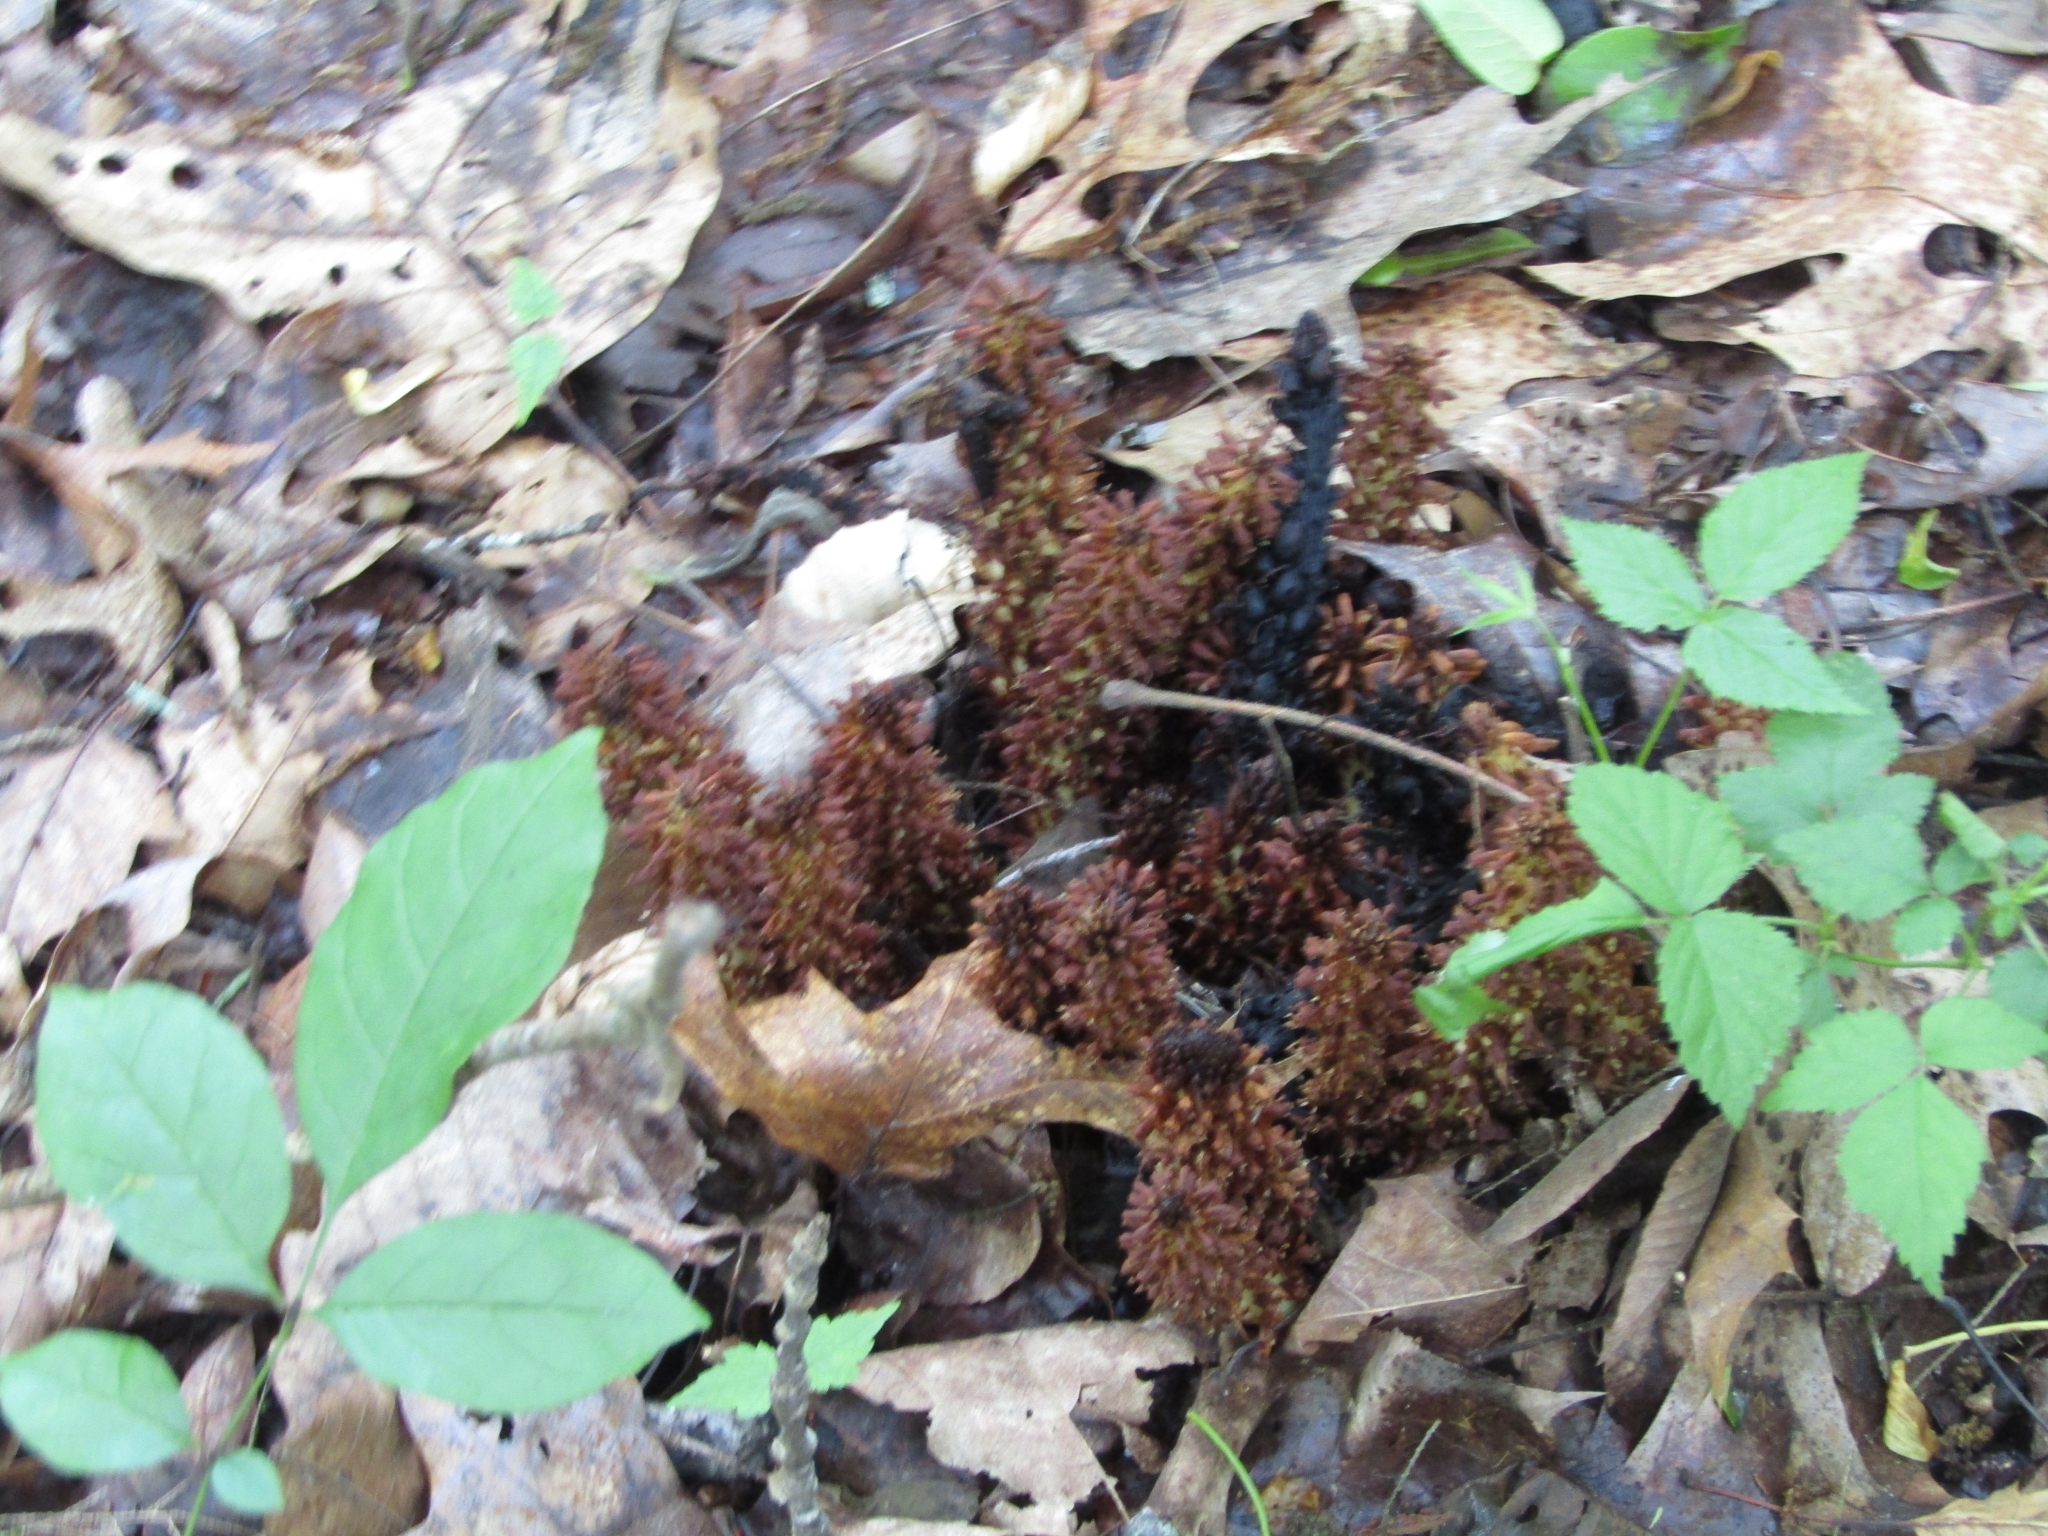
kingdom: Plantae
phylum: Tracheophyta
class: Magnoliopsida
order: Lamiales
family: Orobanchaceae
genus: Conopholis
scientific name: Conopholis americana
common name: American cancer-root
